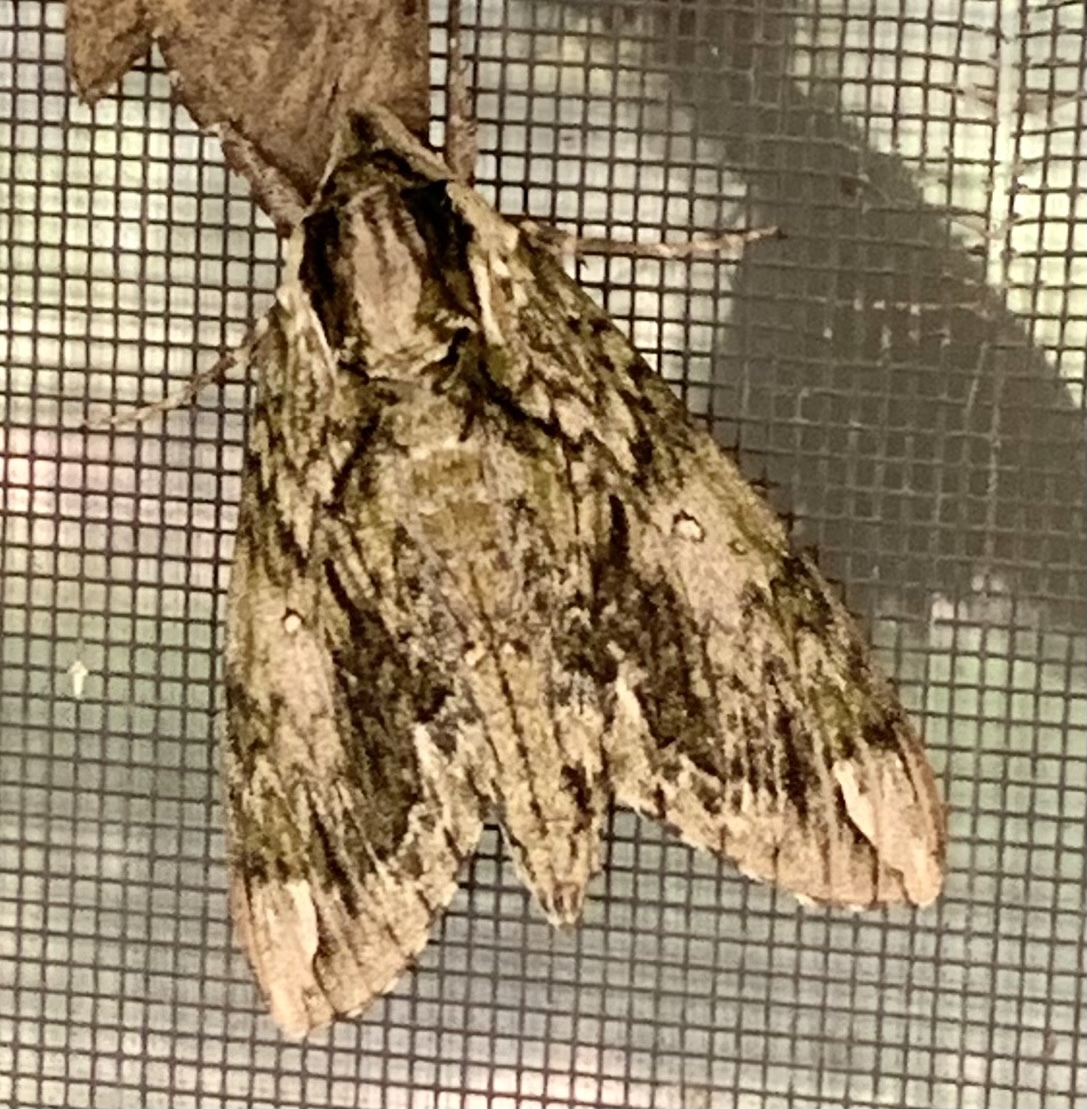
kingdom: Animalia
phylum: Arthropoda
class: Insecta
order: Lepidoptera
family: Sphingidae
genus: Ceratomia
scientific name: Ceratomia hageni
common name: Hagen's sphinx
